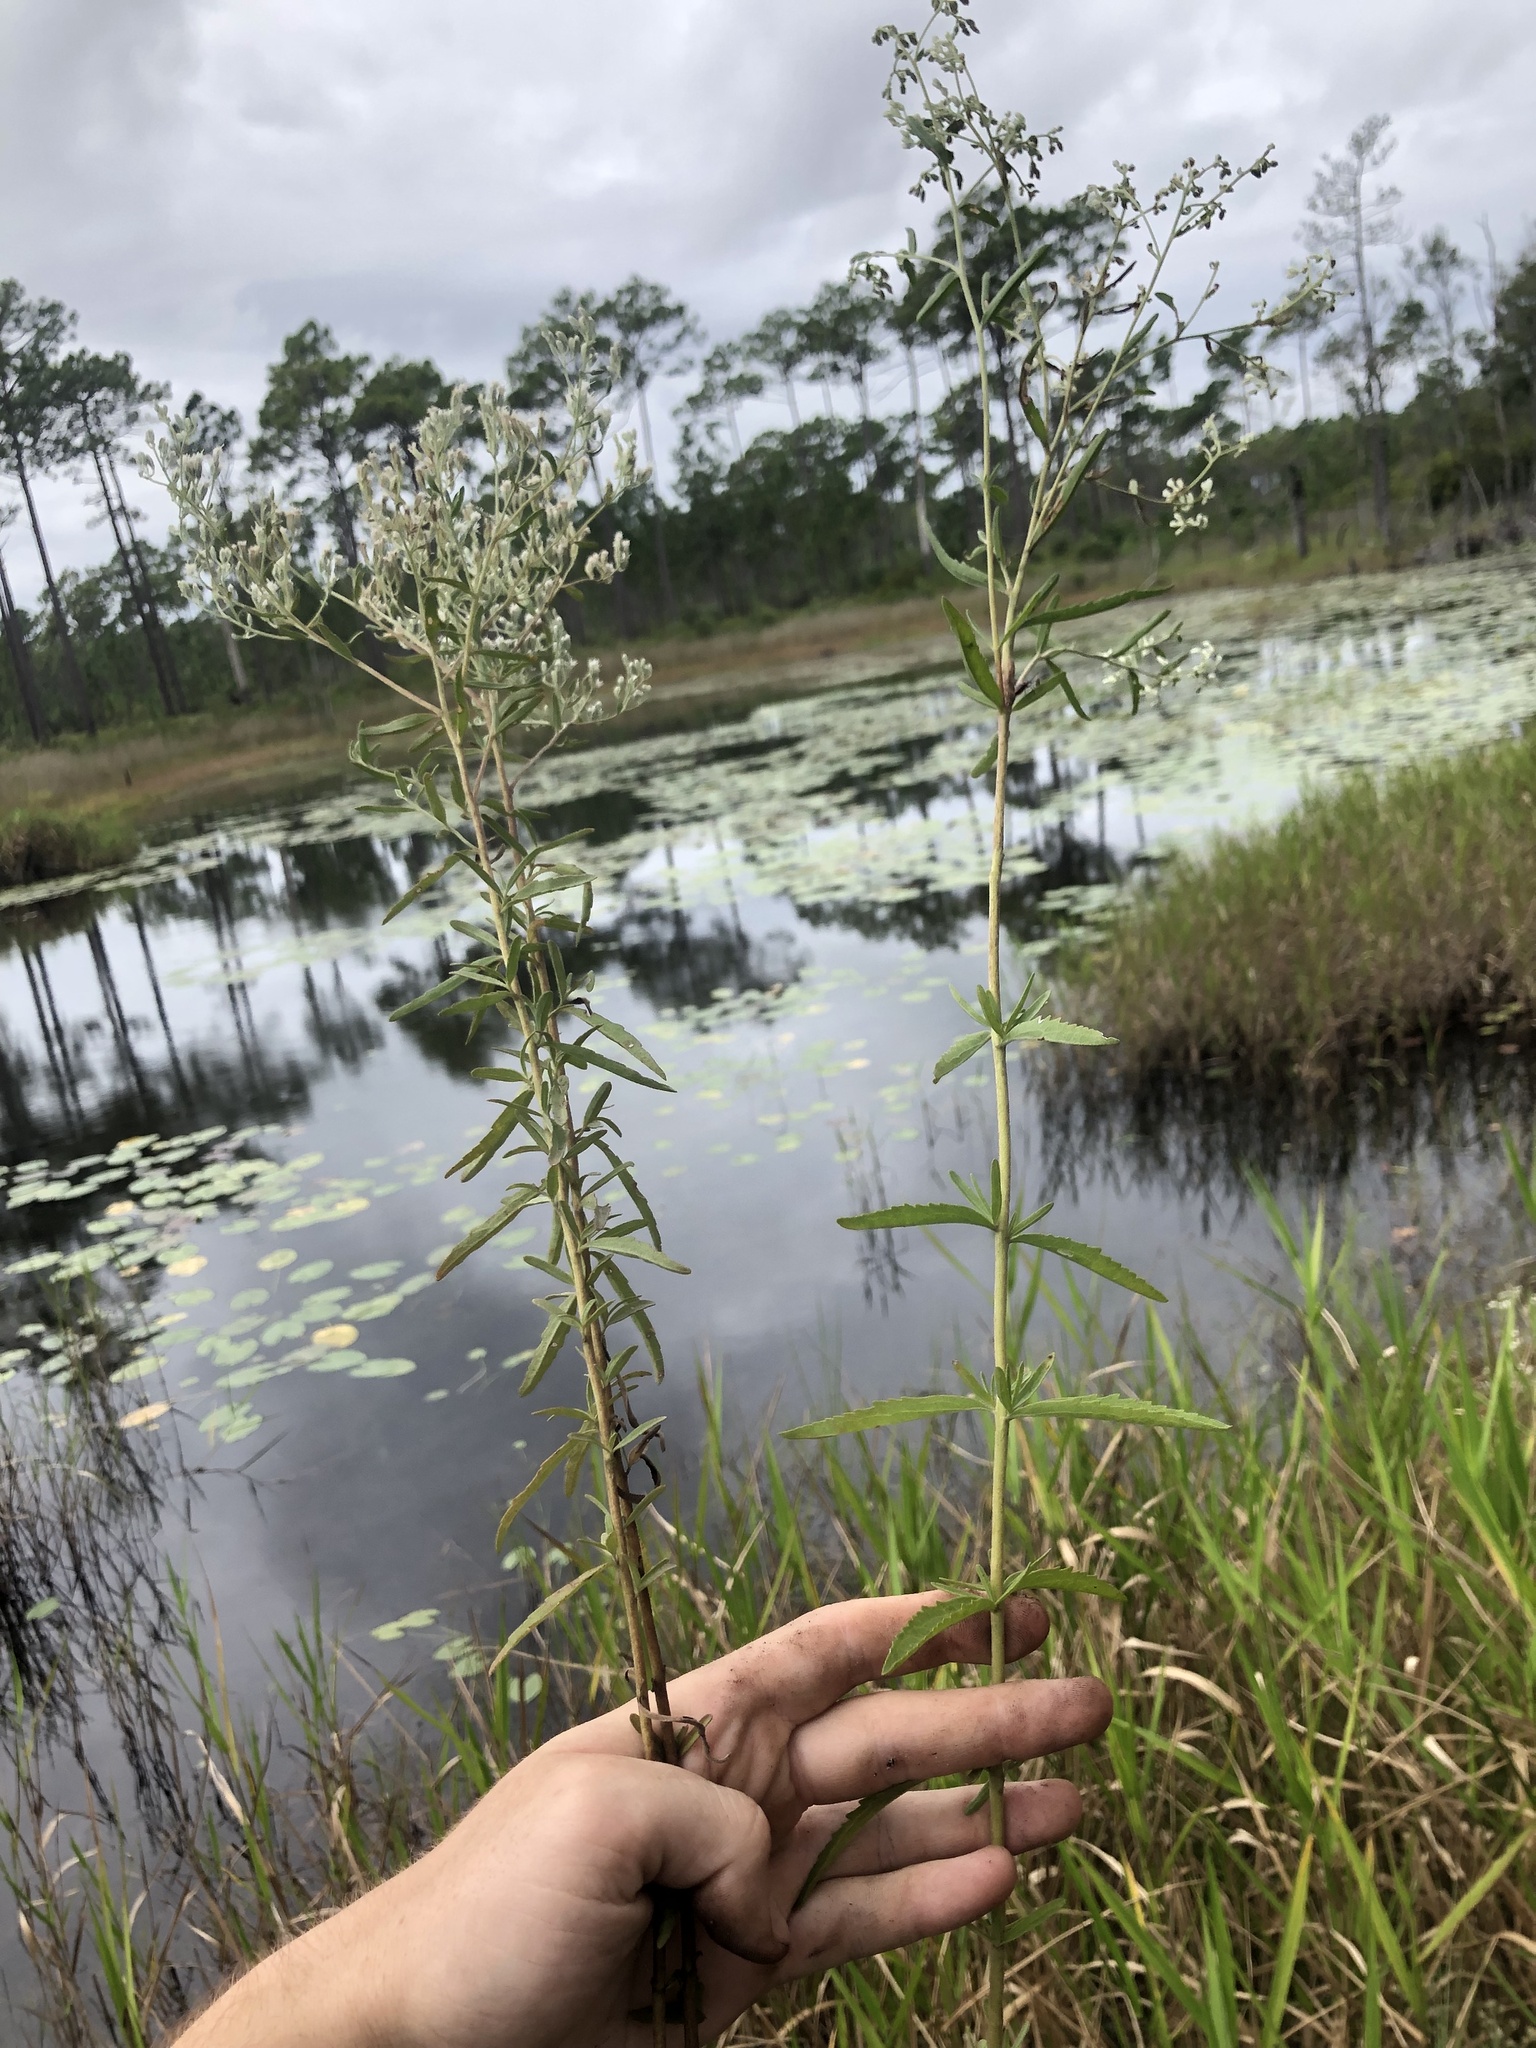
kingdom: Plantae
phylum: Tracheophyta
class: Magnoliopsida
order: Asterales
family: Asteraceae
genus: Eupatorium
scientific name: Eupatorium mohrii
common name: Mohr's thoroughwort
